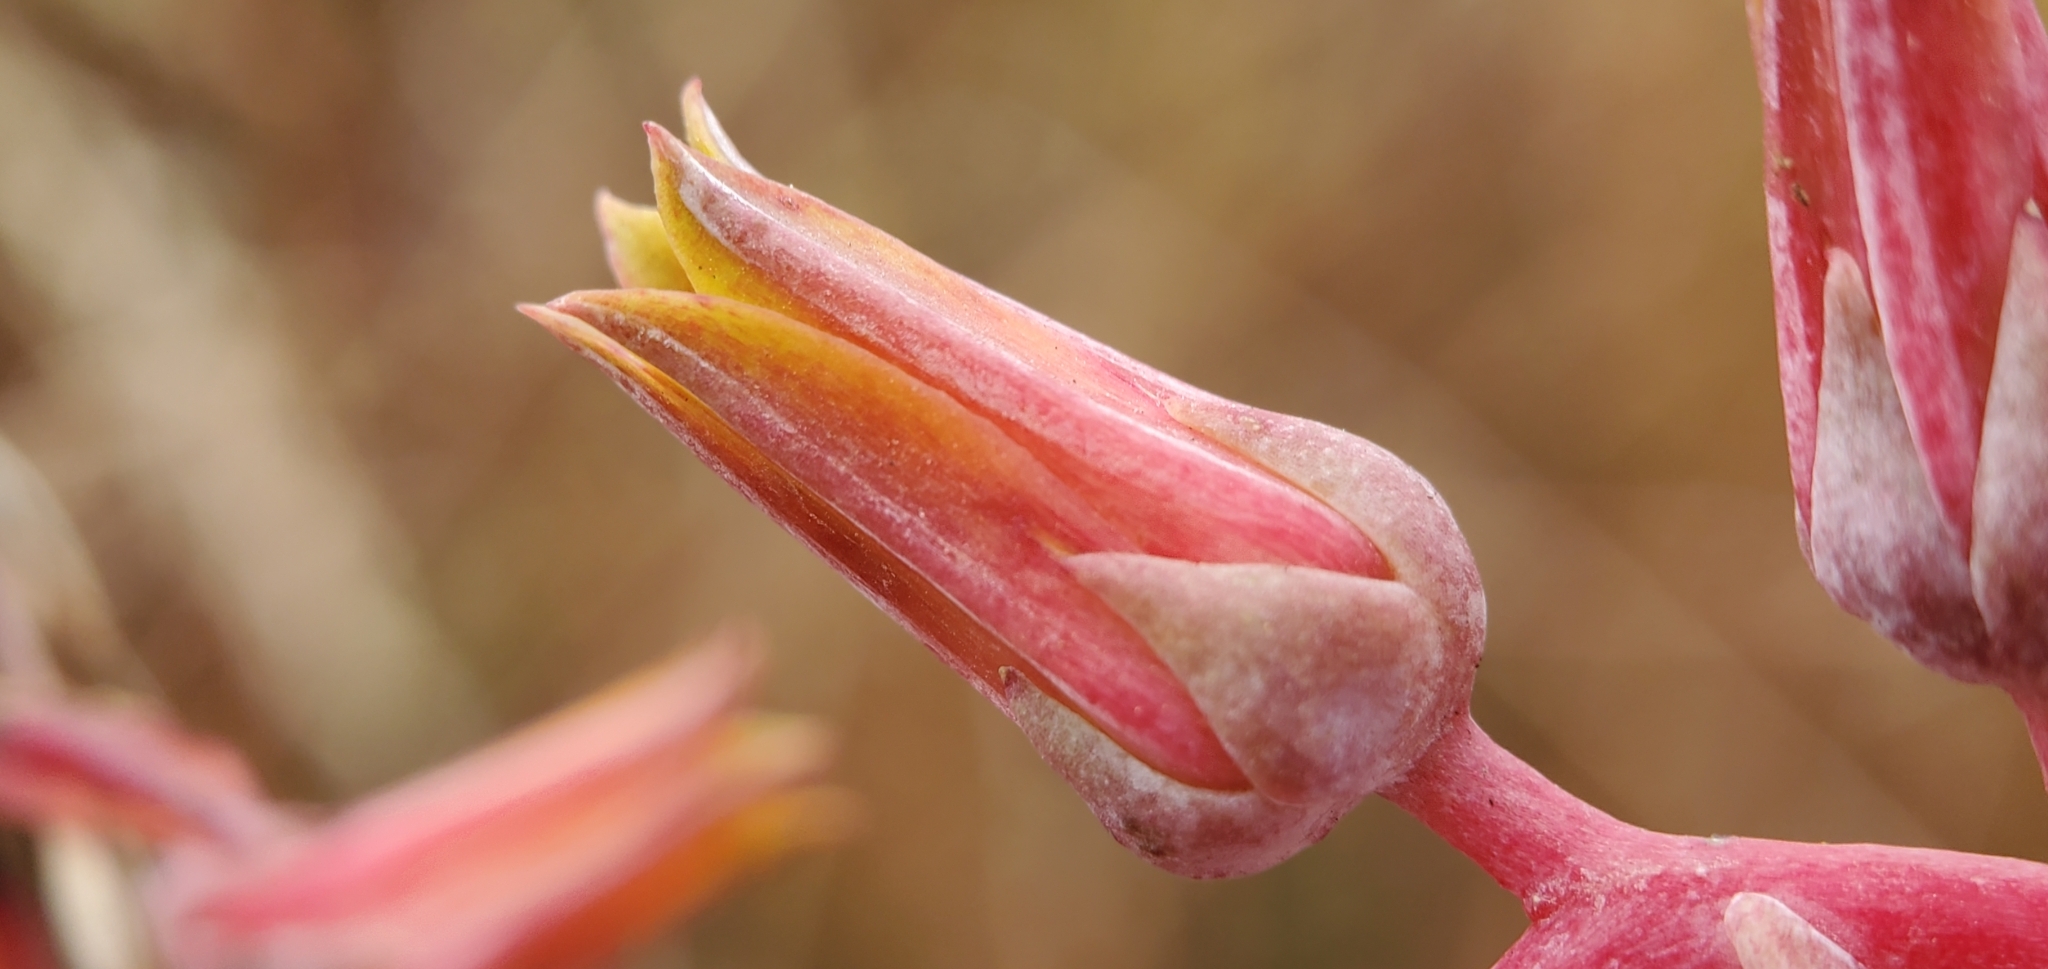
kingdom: Plantae
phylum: Tracheophyta
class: Magnoliopsida
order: Saxifragales
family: Crassulaceae
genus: Dudleya
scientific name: Dudleya lanceolata
